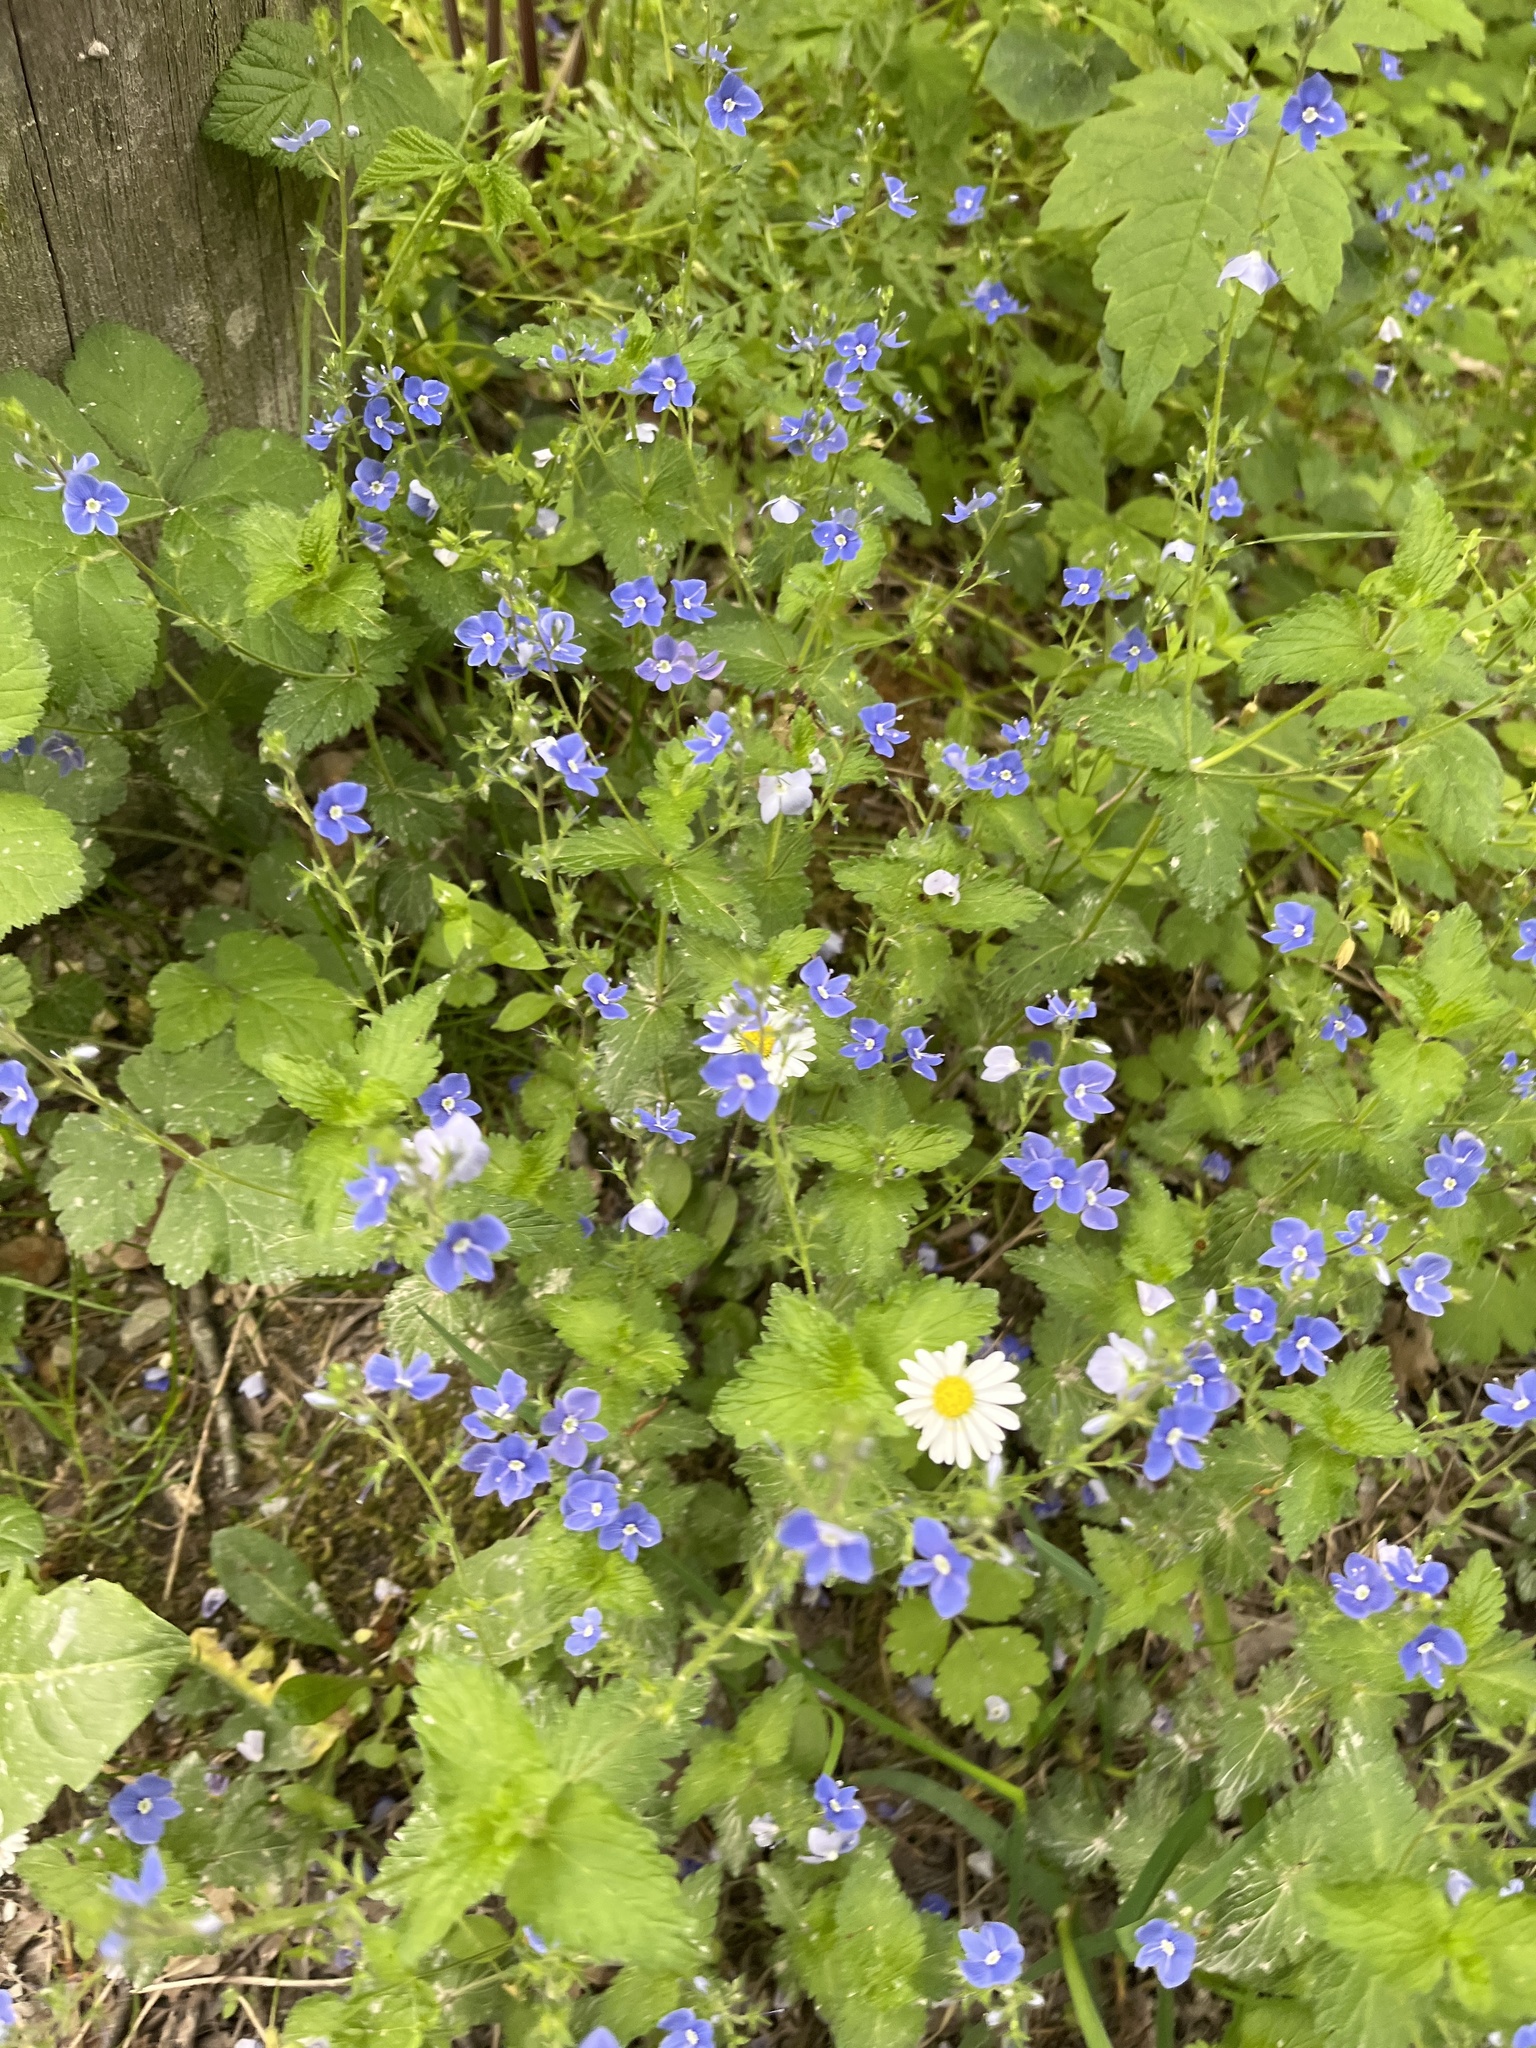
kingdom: Plantae
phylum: Tracheophyta
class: Magnoliopsida
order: Lamiales
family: Plantaginaceae
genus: Veronica
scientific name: Veronica chamaedrys
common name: Germander speedwell
